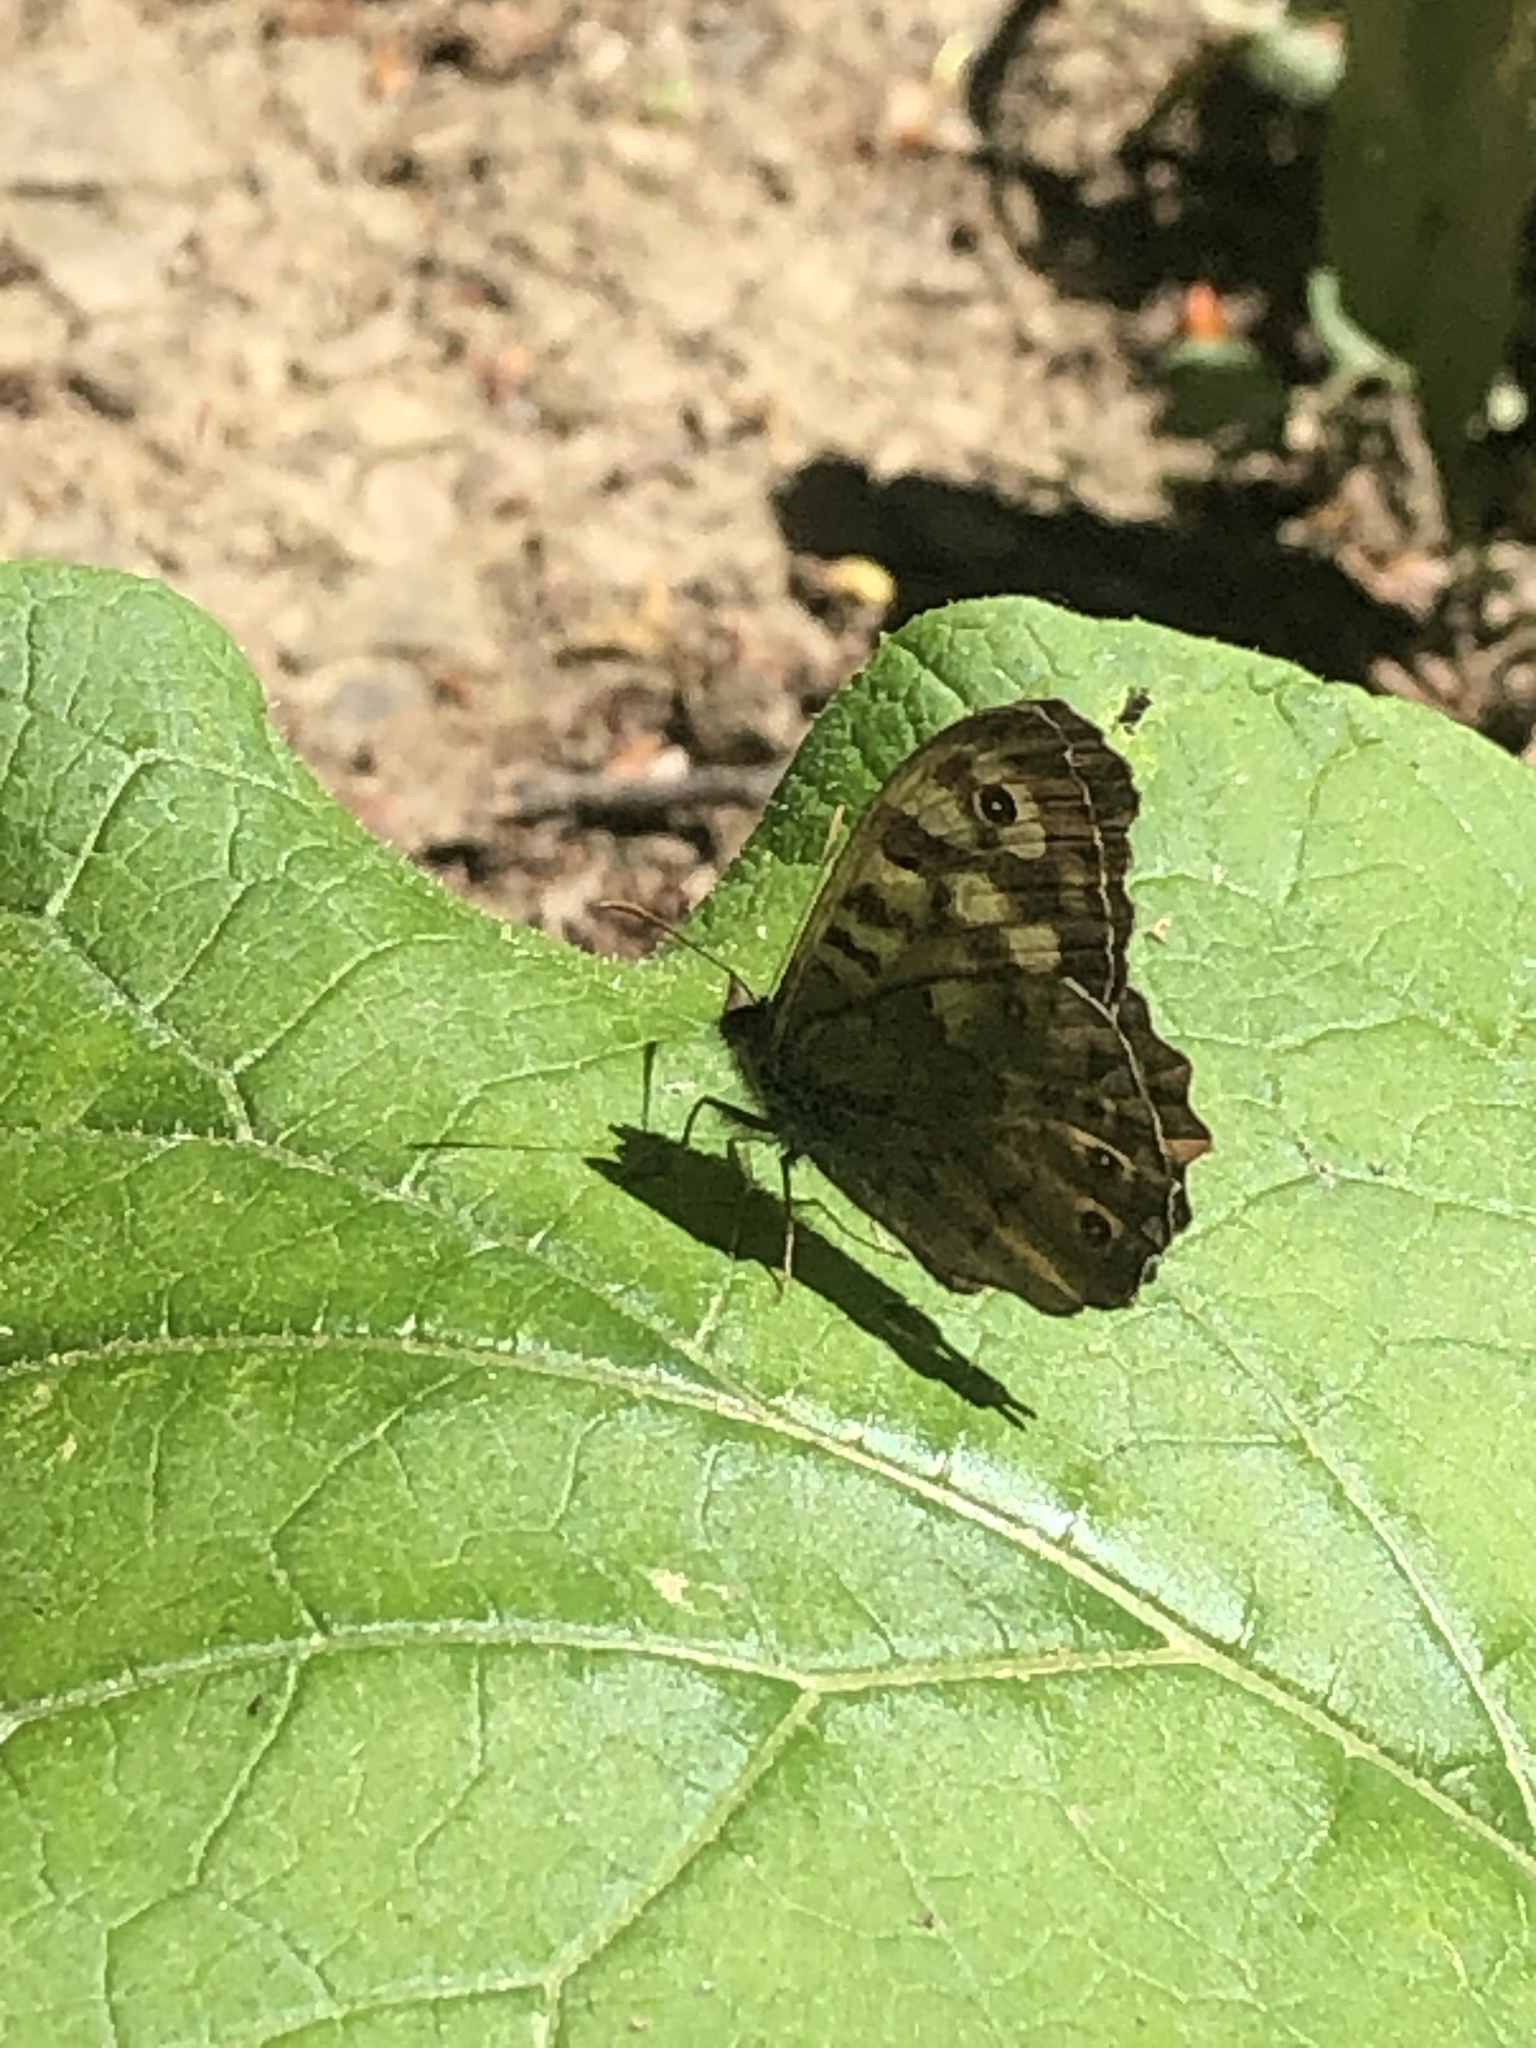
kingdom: Animalia
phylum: Arthropoda
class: Insecta
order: Lepidoptera
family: Nymphalidae
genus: Pararge
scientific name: Pararge aegeria
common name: Speckled wood
